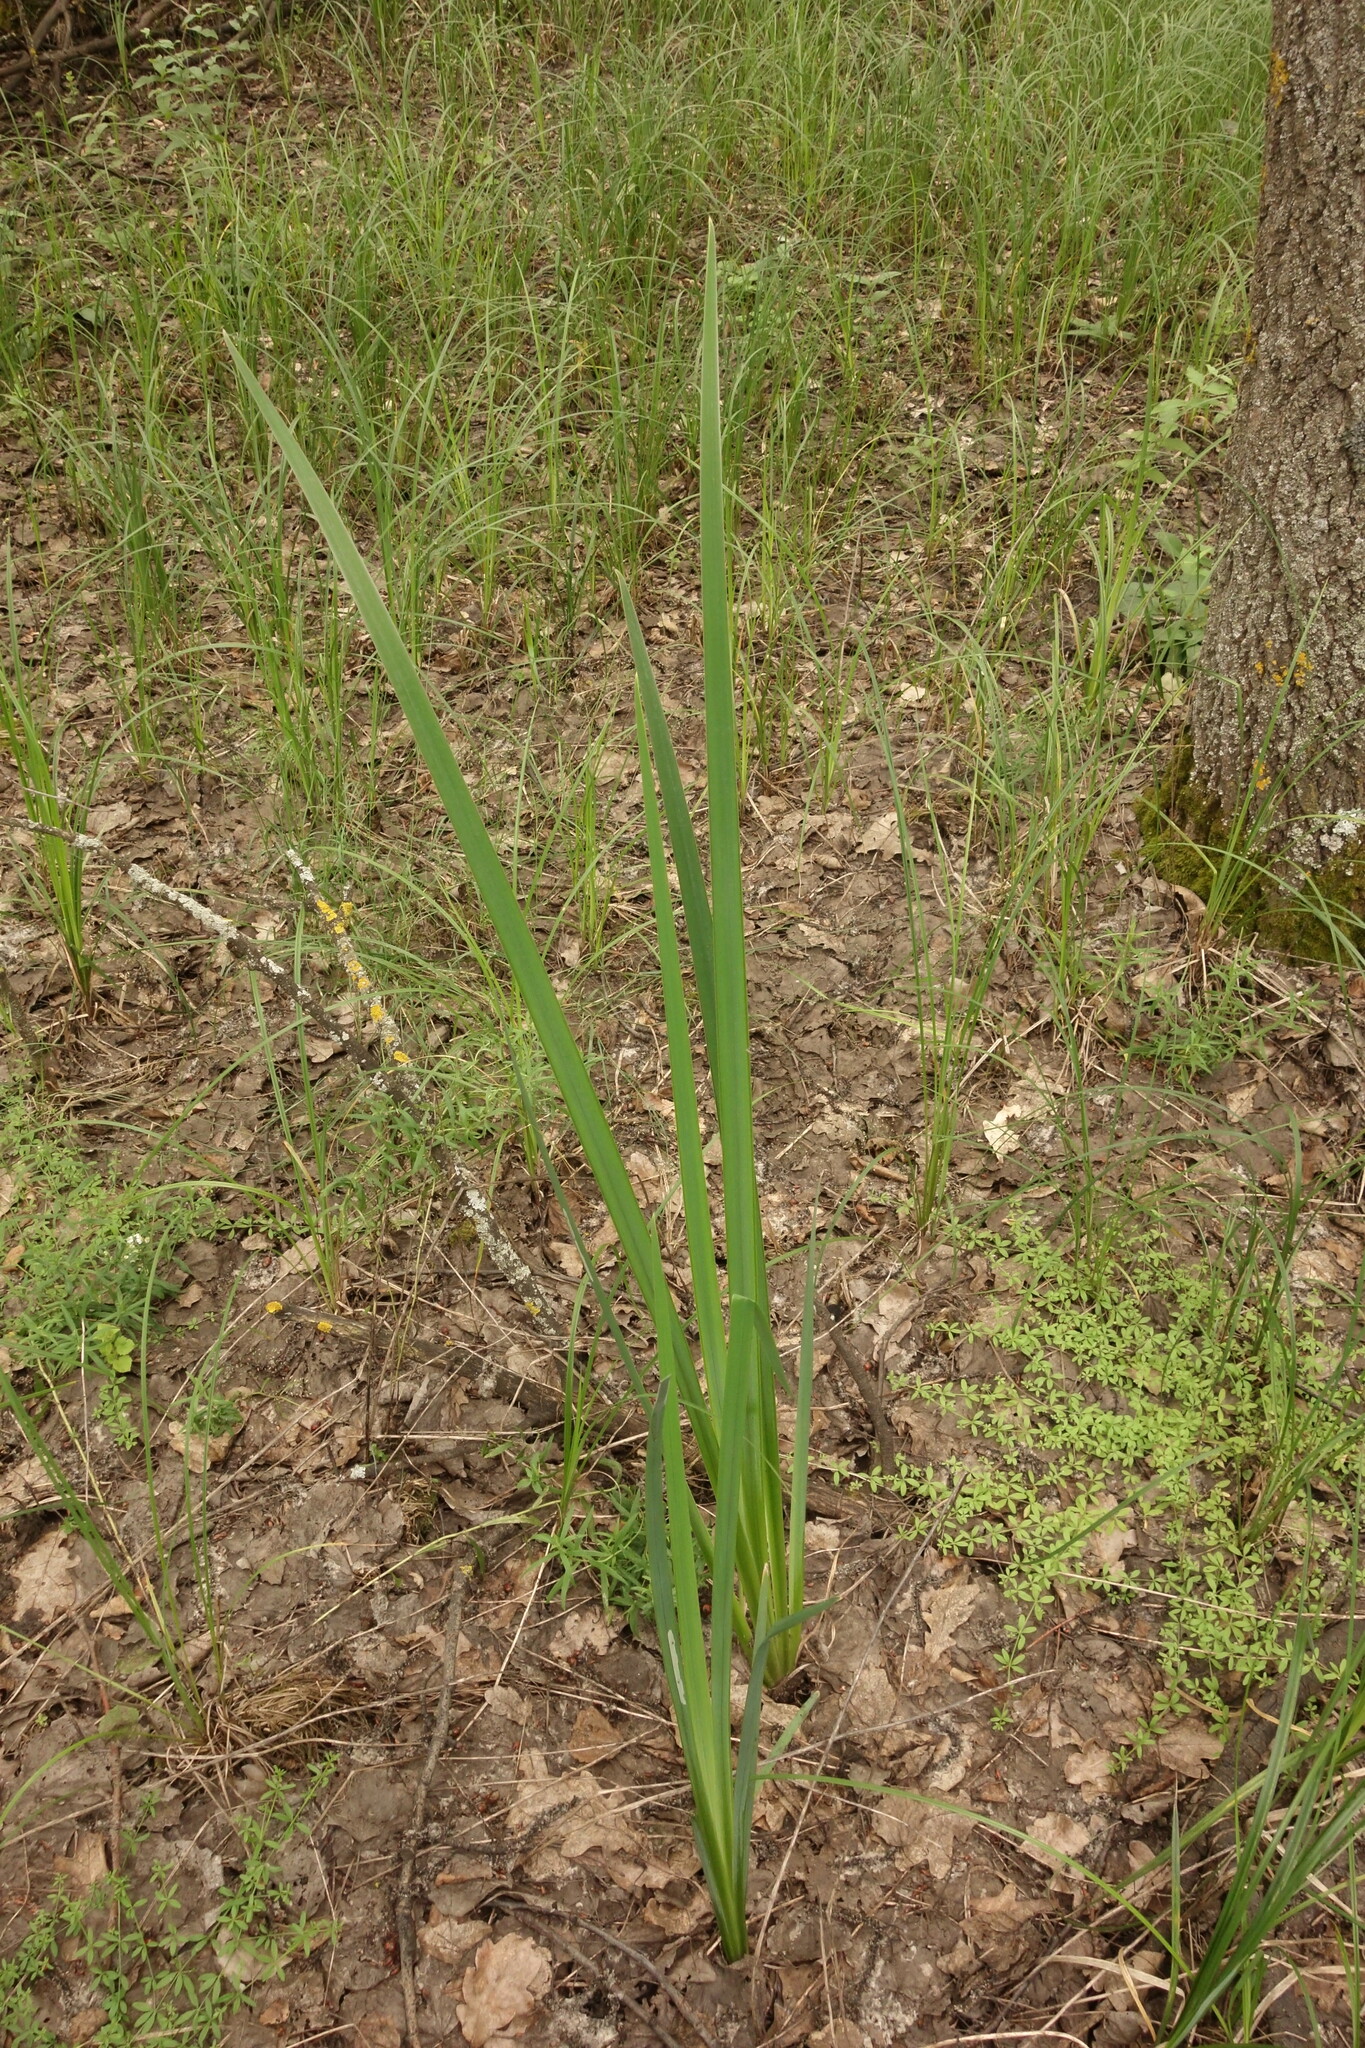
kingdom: Plantae
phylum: Tracheophyta
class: Liliopsida
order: Asparagales
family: Iridaceae
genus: Iris
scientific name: Iris pseudacorus
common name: Yellow flag
